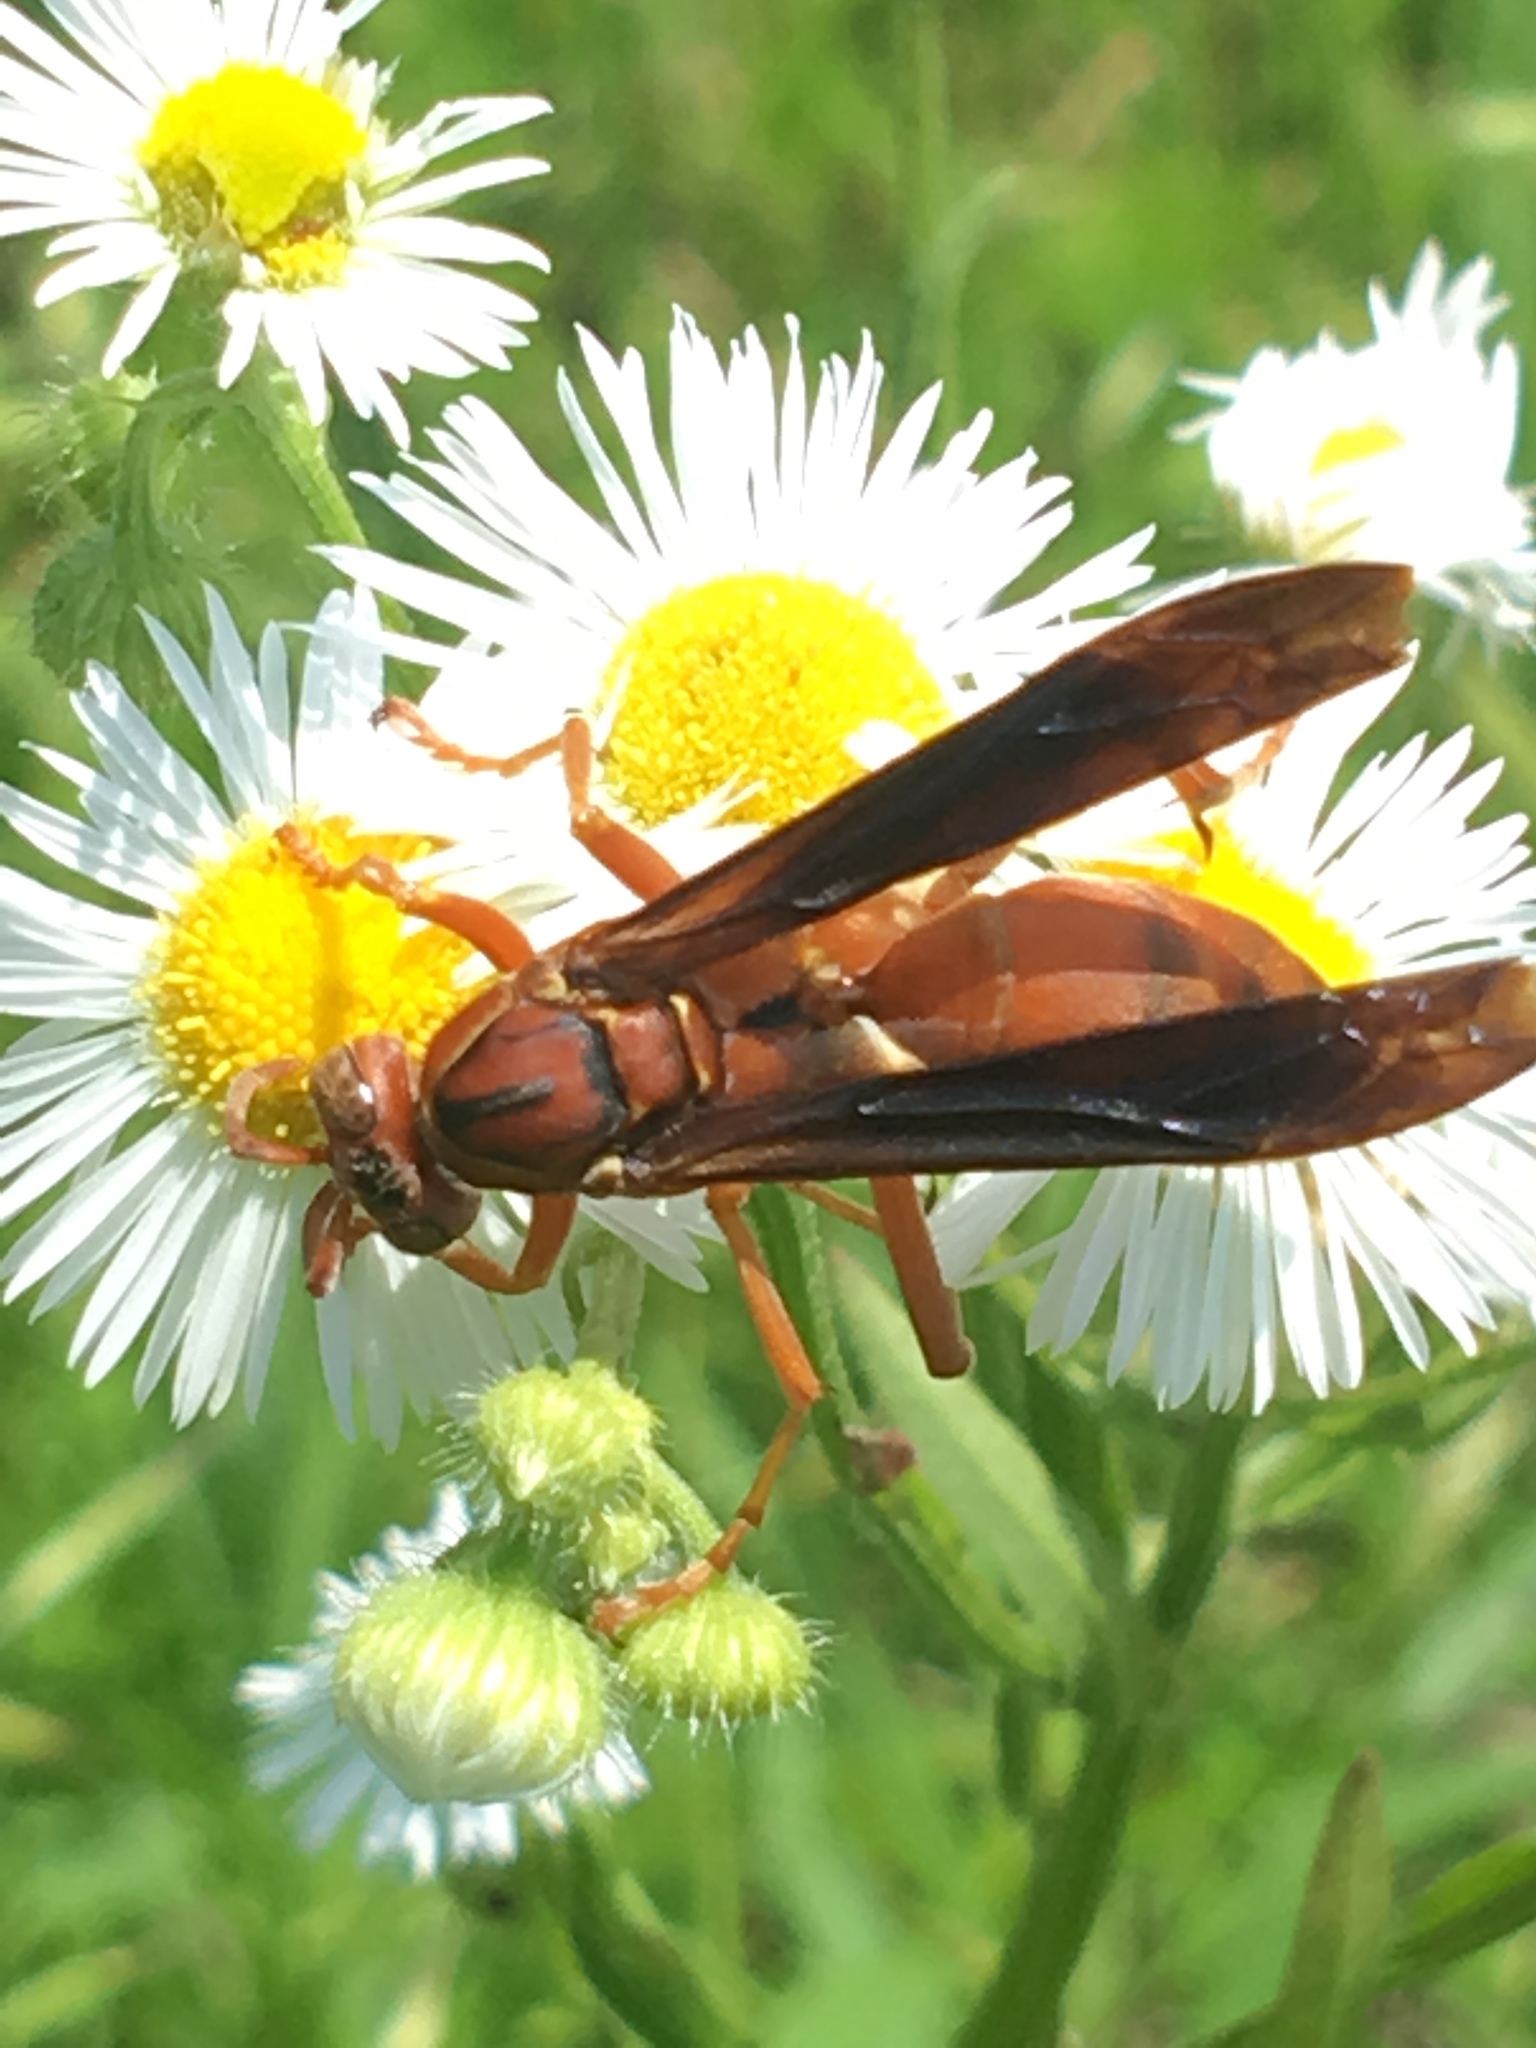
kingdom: Animalia
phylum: Arthropoda
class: Insecta
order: Hymenoptera
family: Eumenidae
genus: Polistes
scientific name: Polistes carolina
